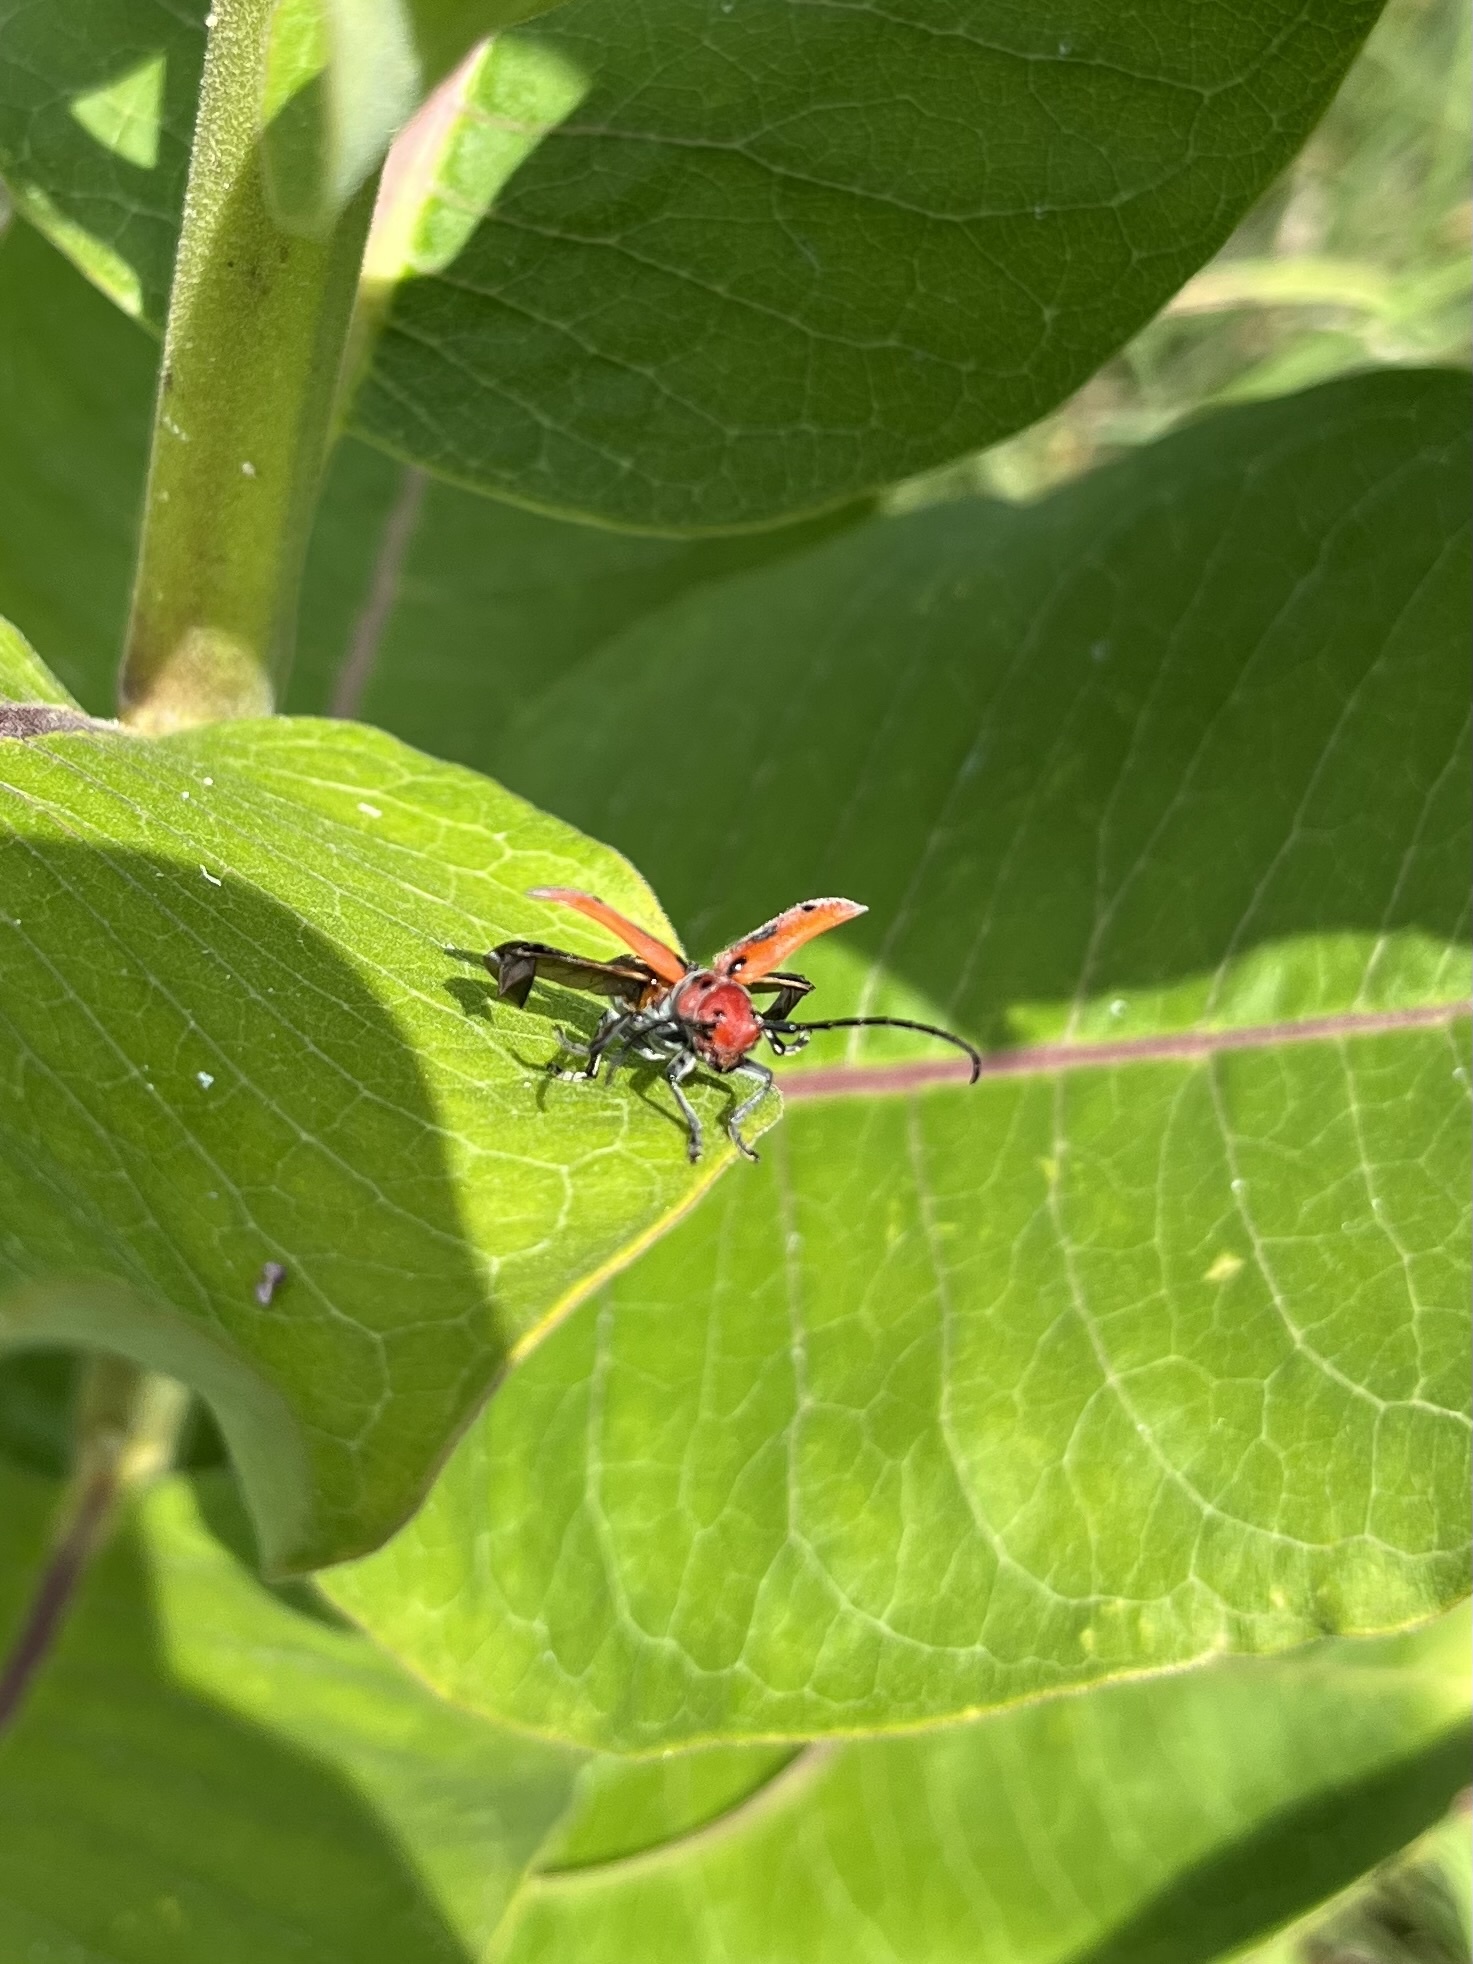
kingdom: Animalia
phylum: Arthropoda
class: Insecta
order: Coleoptera
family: Cerambycidae
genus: Tetraopes
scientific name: Tetraopes tetrophthalmus
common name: Red milkweed beetle
